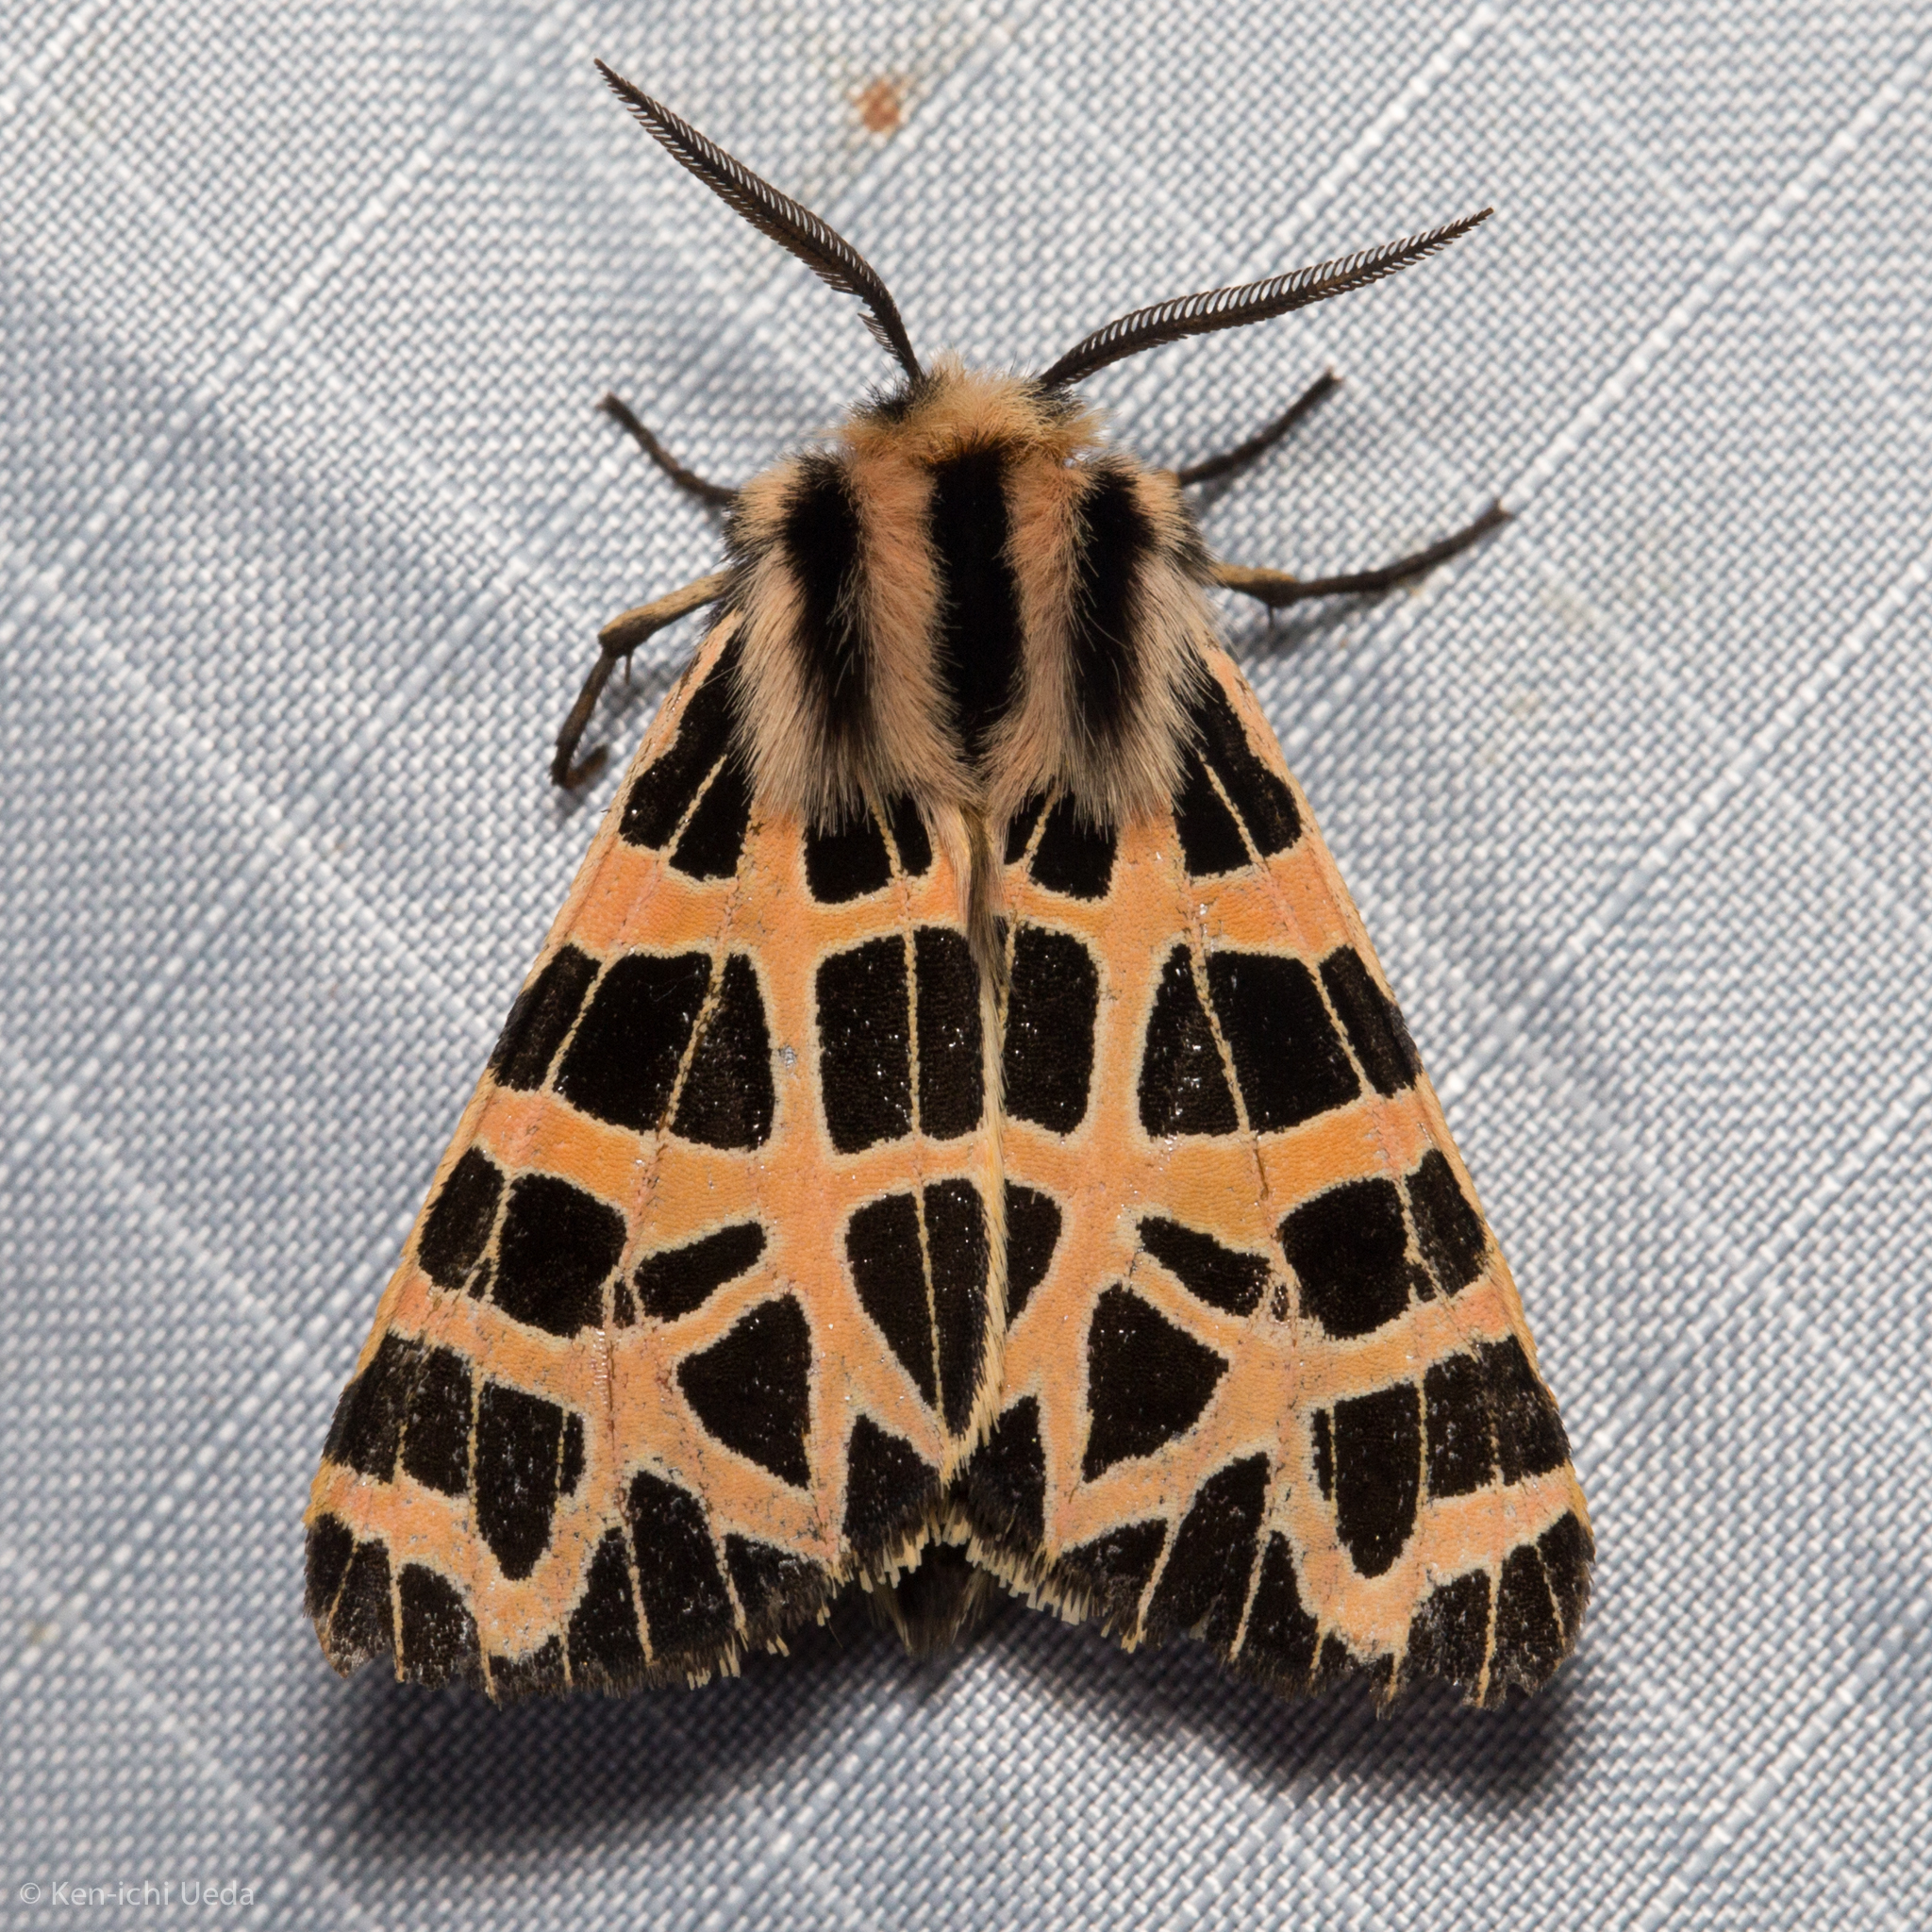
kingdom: Animalia
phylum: Arthropoda
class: Insecta
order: Lepidoptera
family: Erebidae
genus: Apantesis
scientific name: Apantesis
